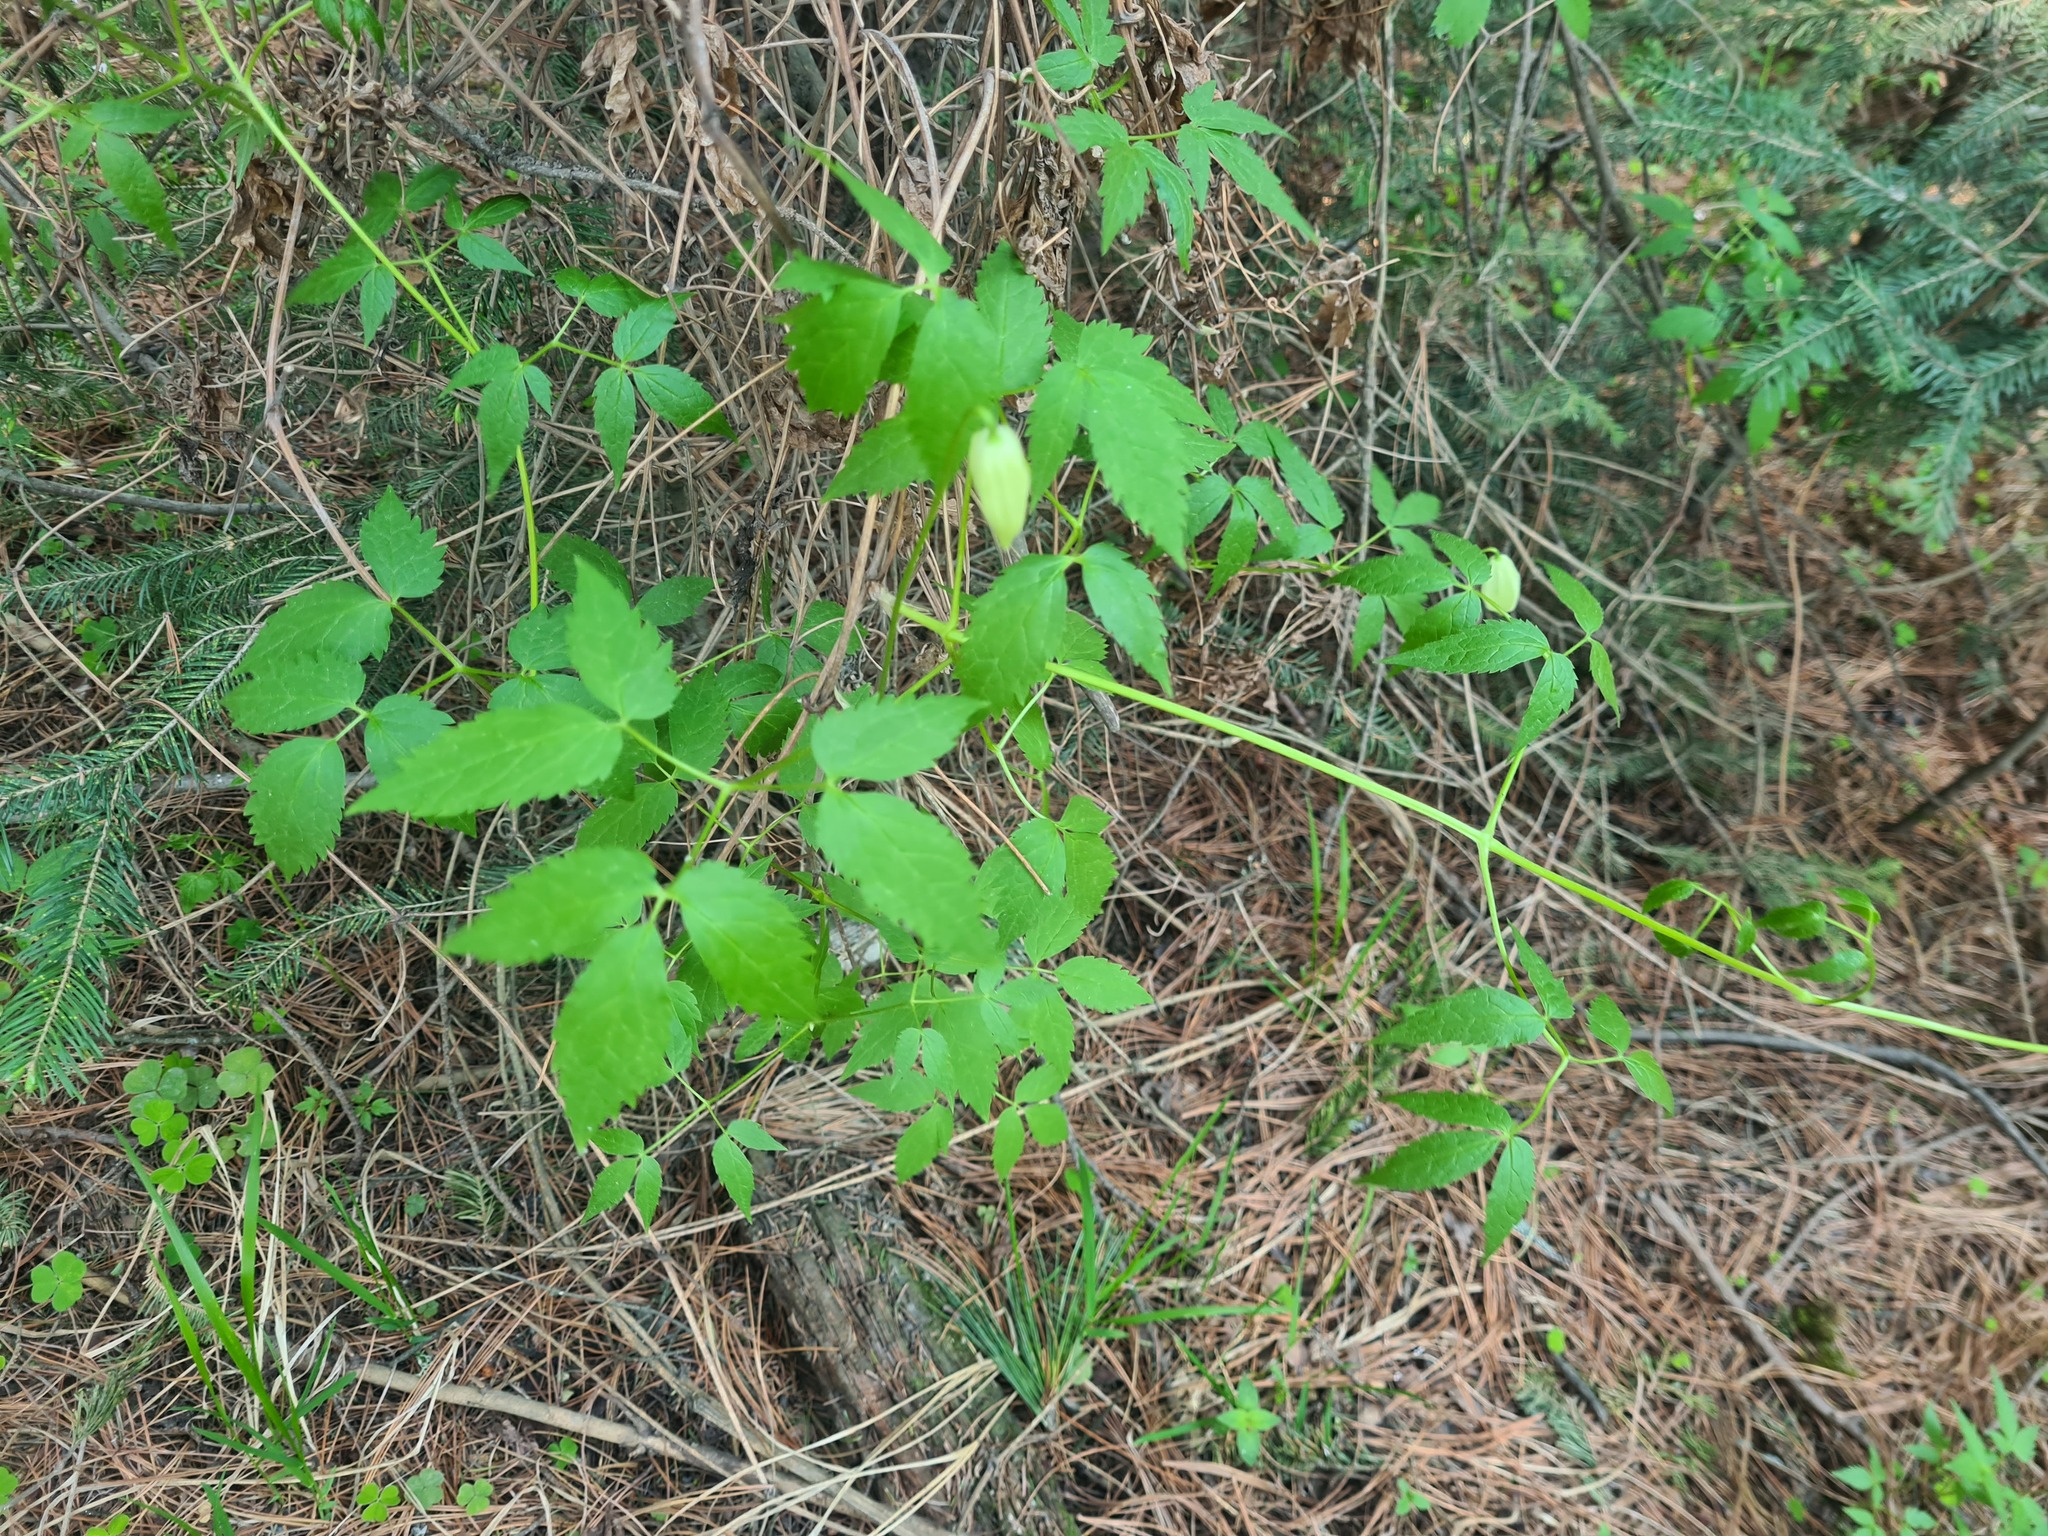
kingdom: Plantae
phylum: Tracheophyta
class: Magnoliopsida
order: Ranunculales
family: Ranunculaceae
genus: Clematis
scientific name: Clematis sibirica
